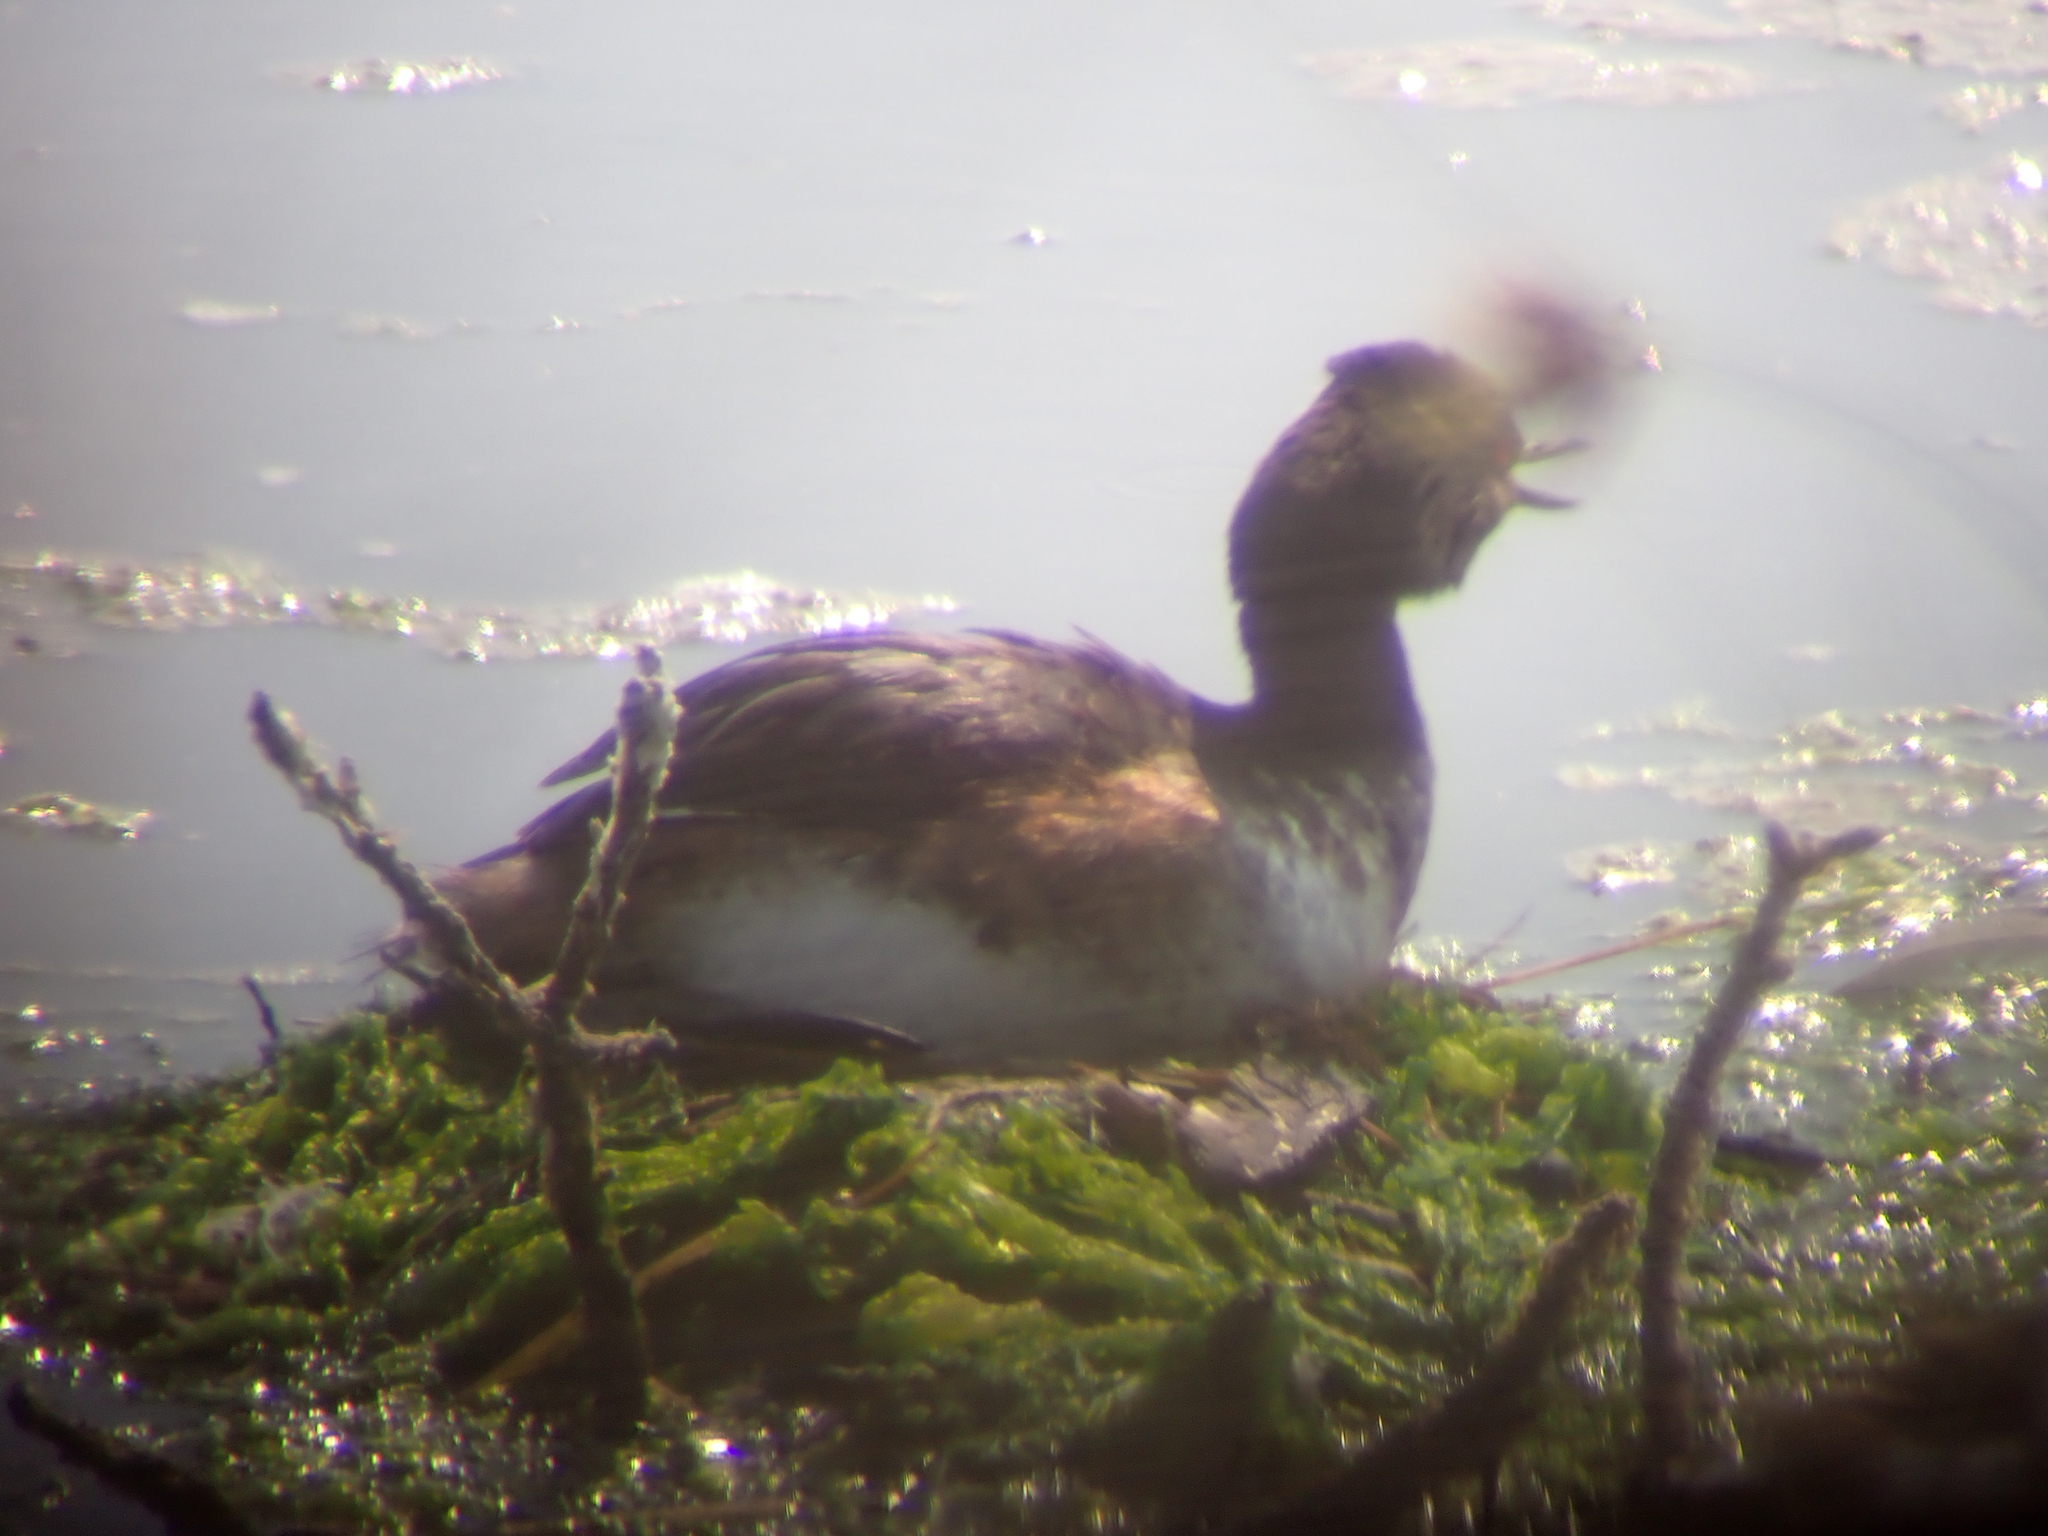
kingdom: Animalia
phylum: Chordata
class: Aves
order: Podicipediformes
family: Podicipedidae
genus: Podiceps
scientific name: Podiceps nigricollis
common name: Black-necked grebe
